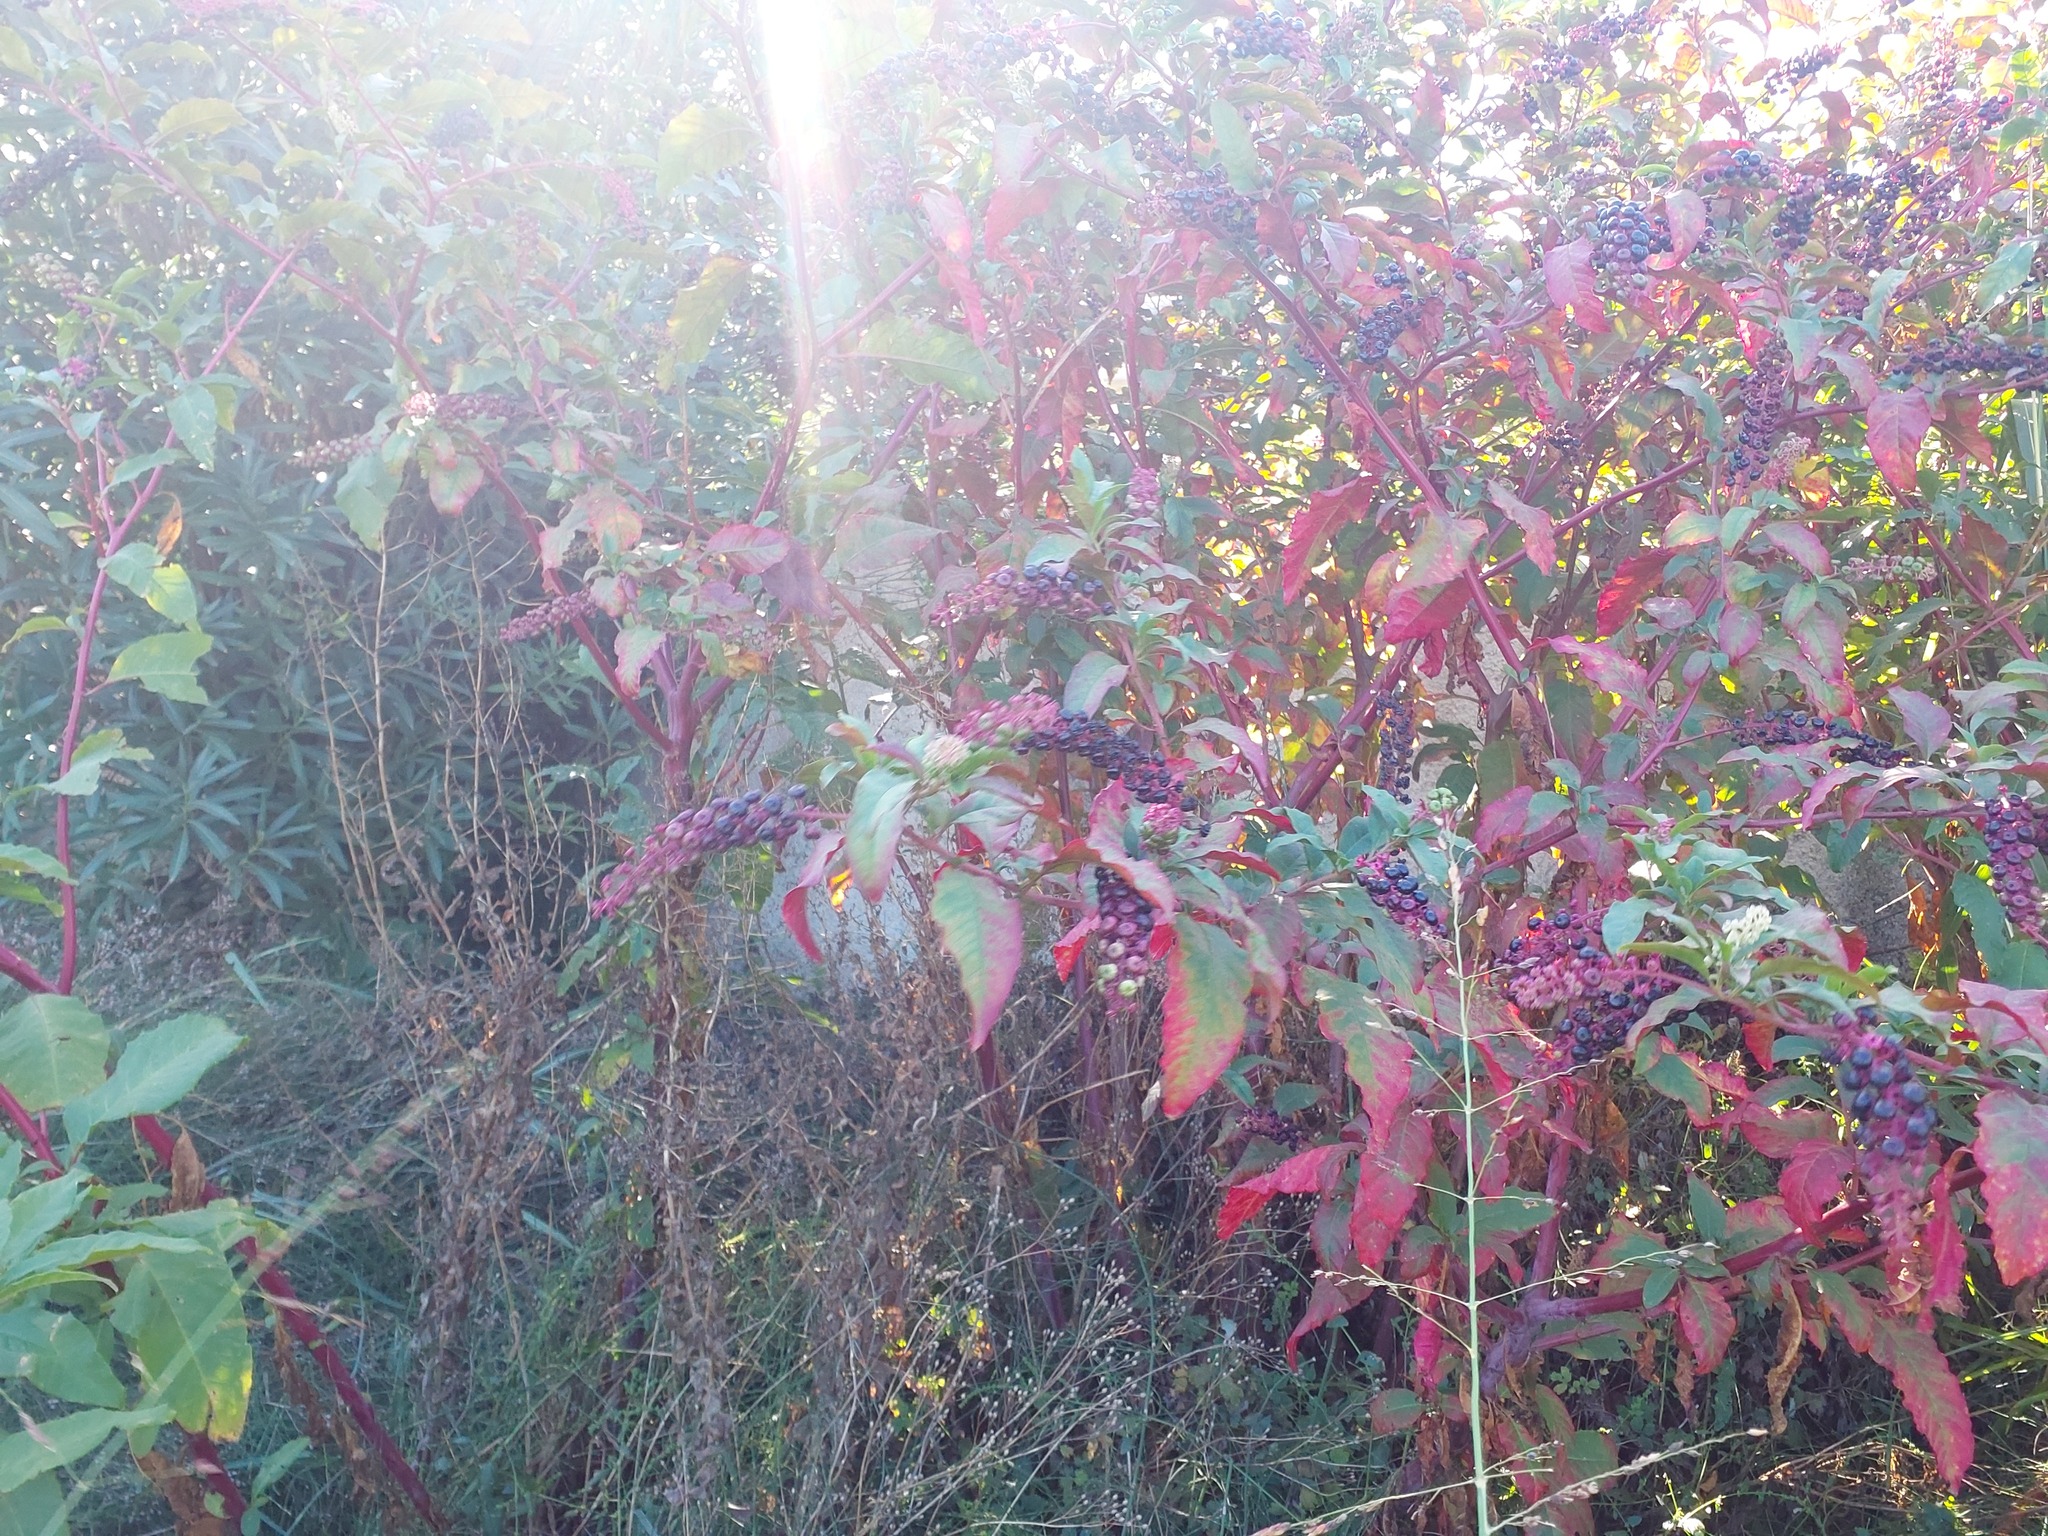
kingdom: Plantae
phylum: Tracheophyta
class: Magnoliopsida
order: Caryophyllales
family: Phytolaccaceae
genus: Phytolacca
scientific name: Phytolacca americana
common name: American pokeweed
